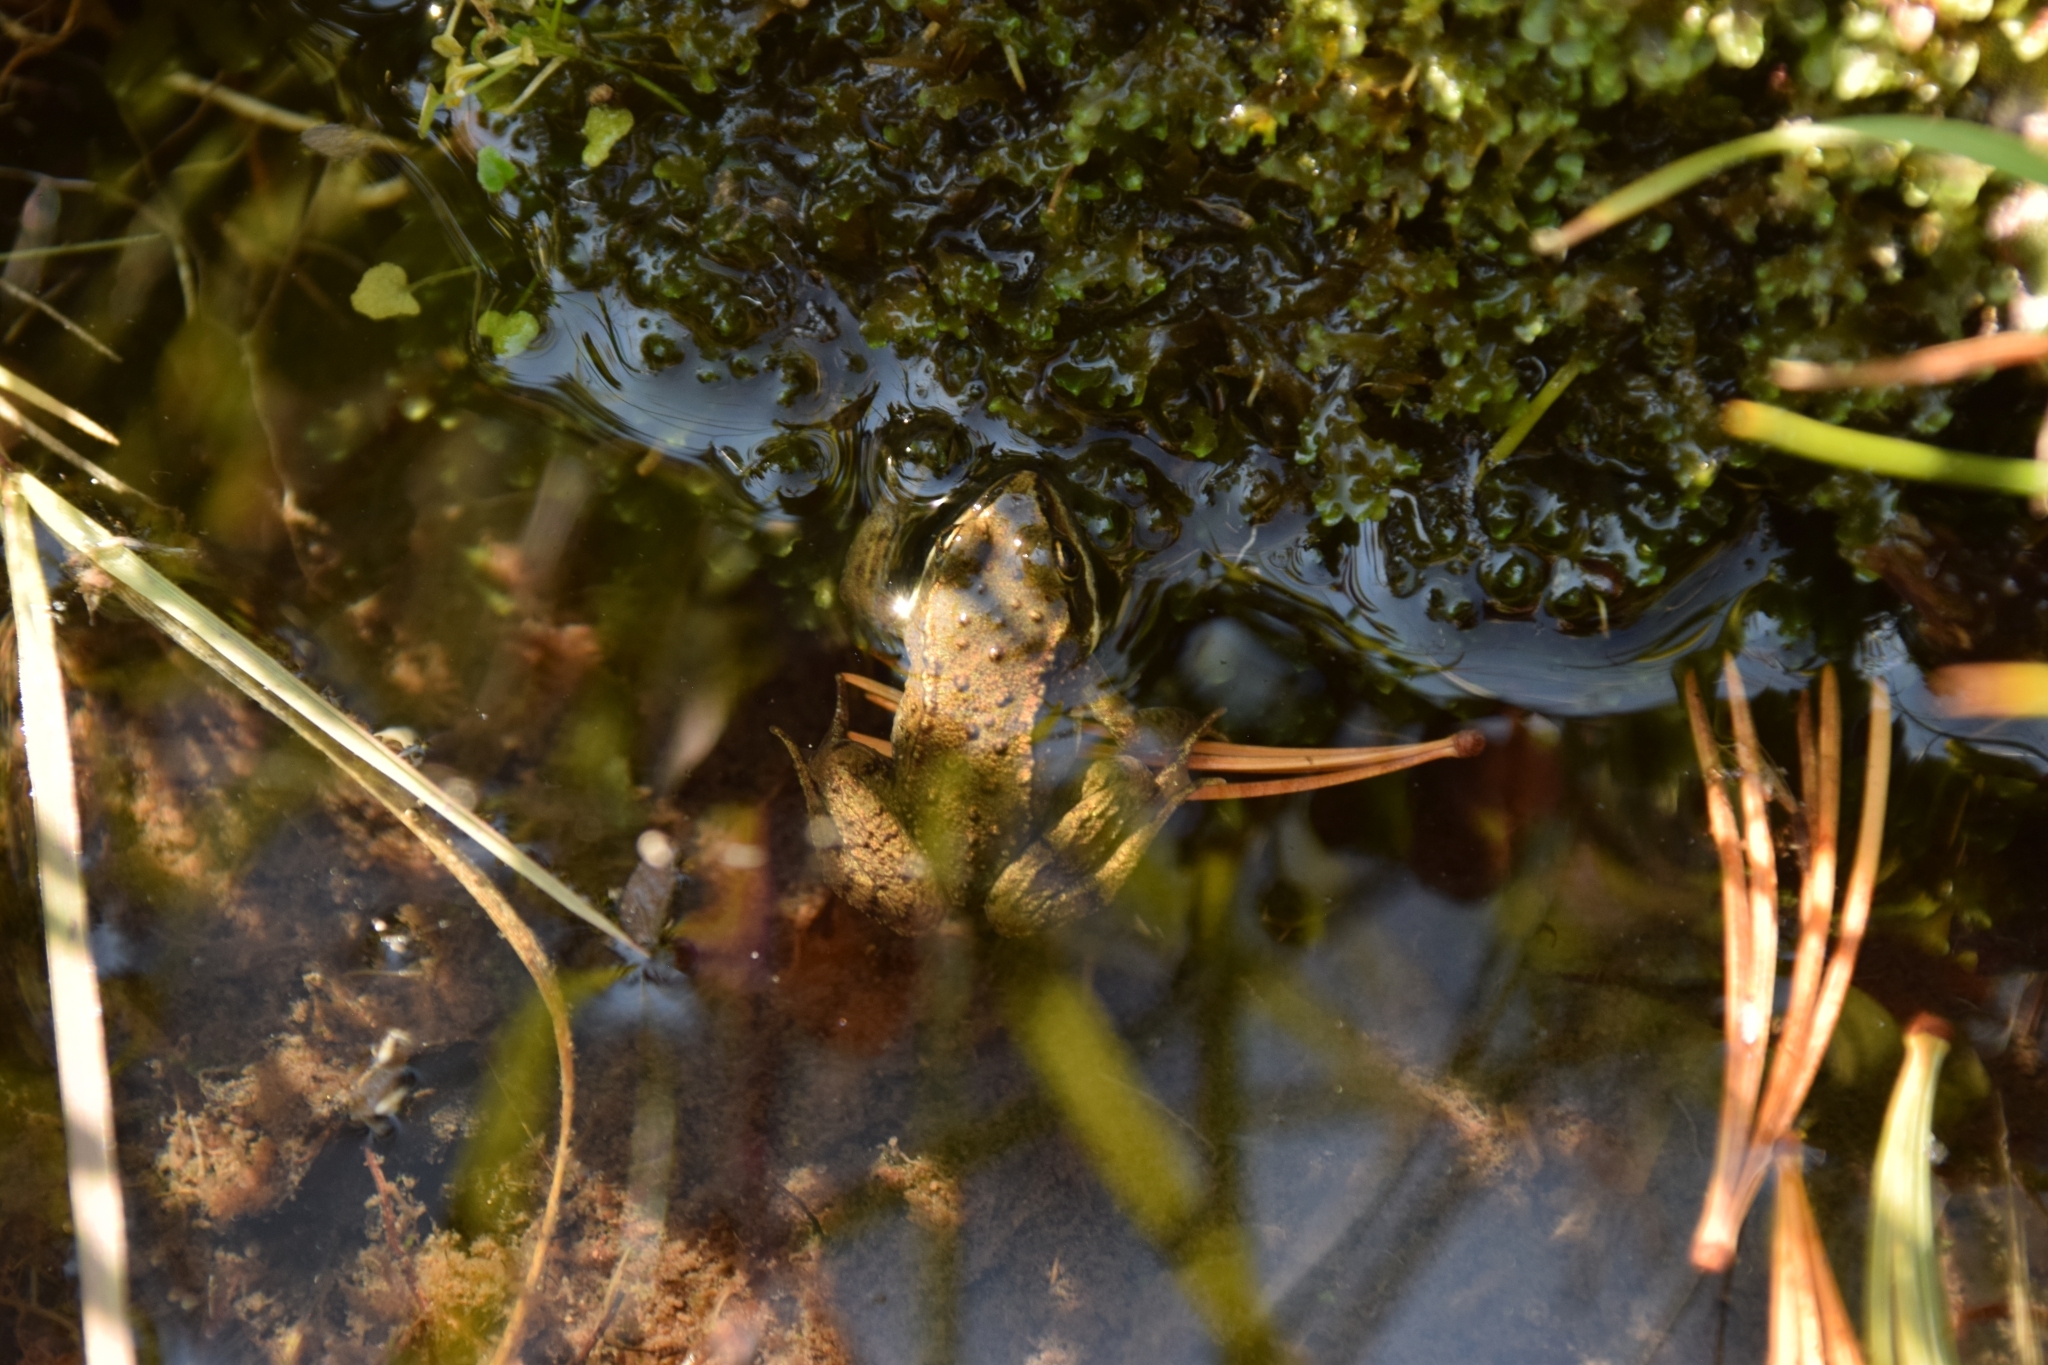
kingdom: Animalia
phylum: Chordata
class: Amphibia
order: Anura
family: Ranidae
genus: Rana
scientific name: Rana luteiventris
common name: Columbia spotted frog
